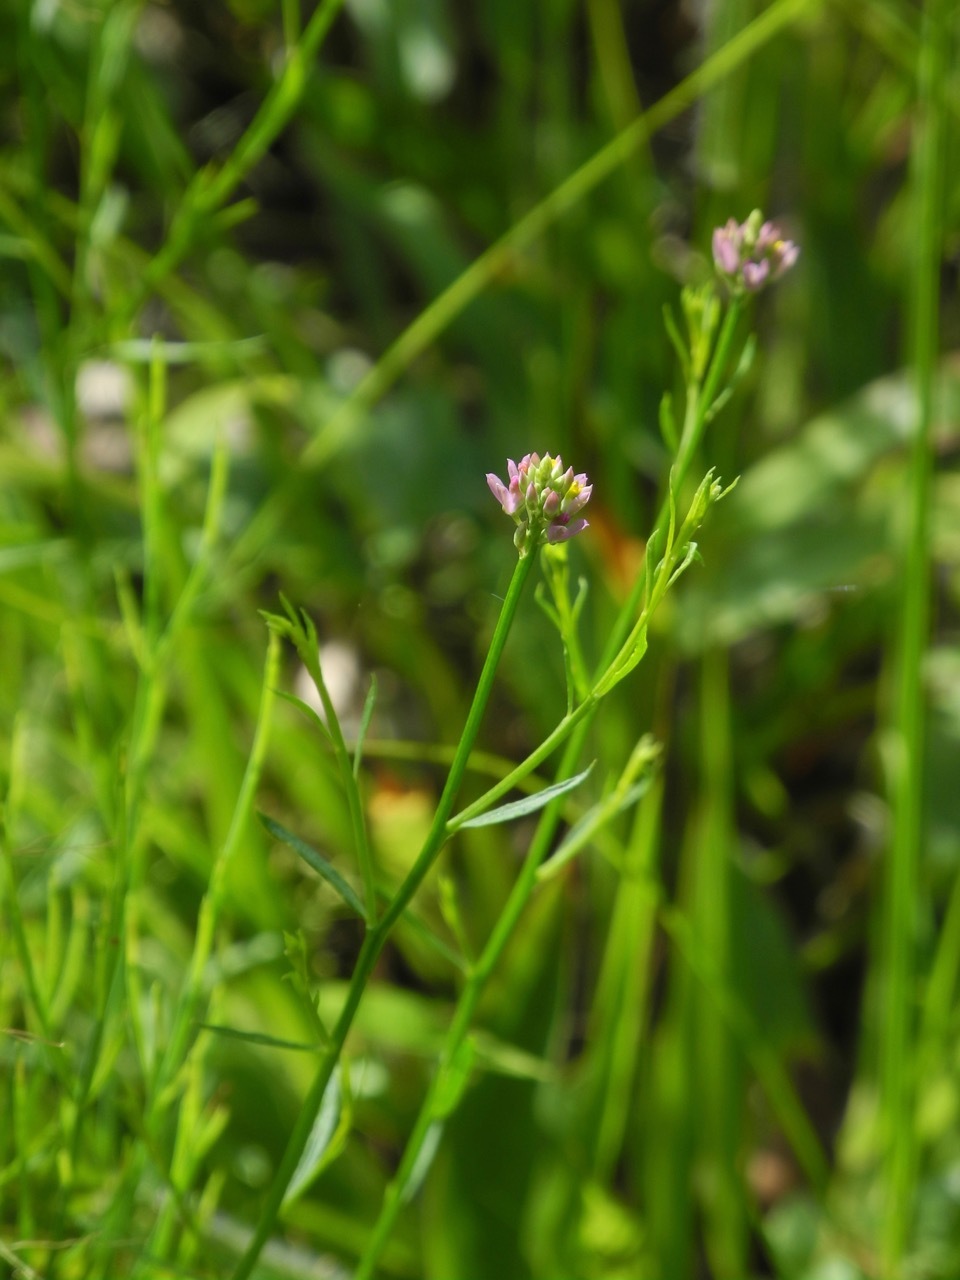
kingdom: Plantae
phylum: Tracheophyta
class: Magnoliopsida
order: Fabales
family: Polygalaceae
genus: Polygala
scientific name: Polygala curtissii
